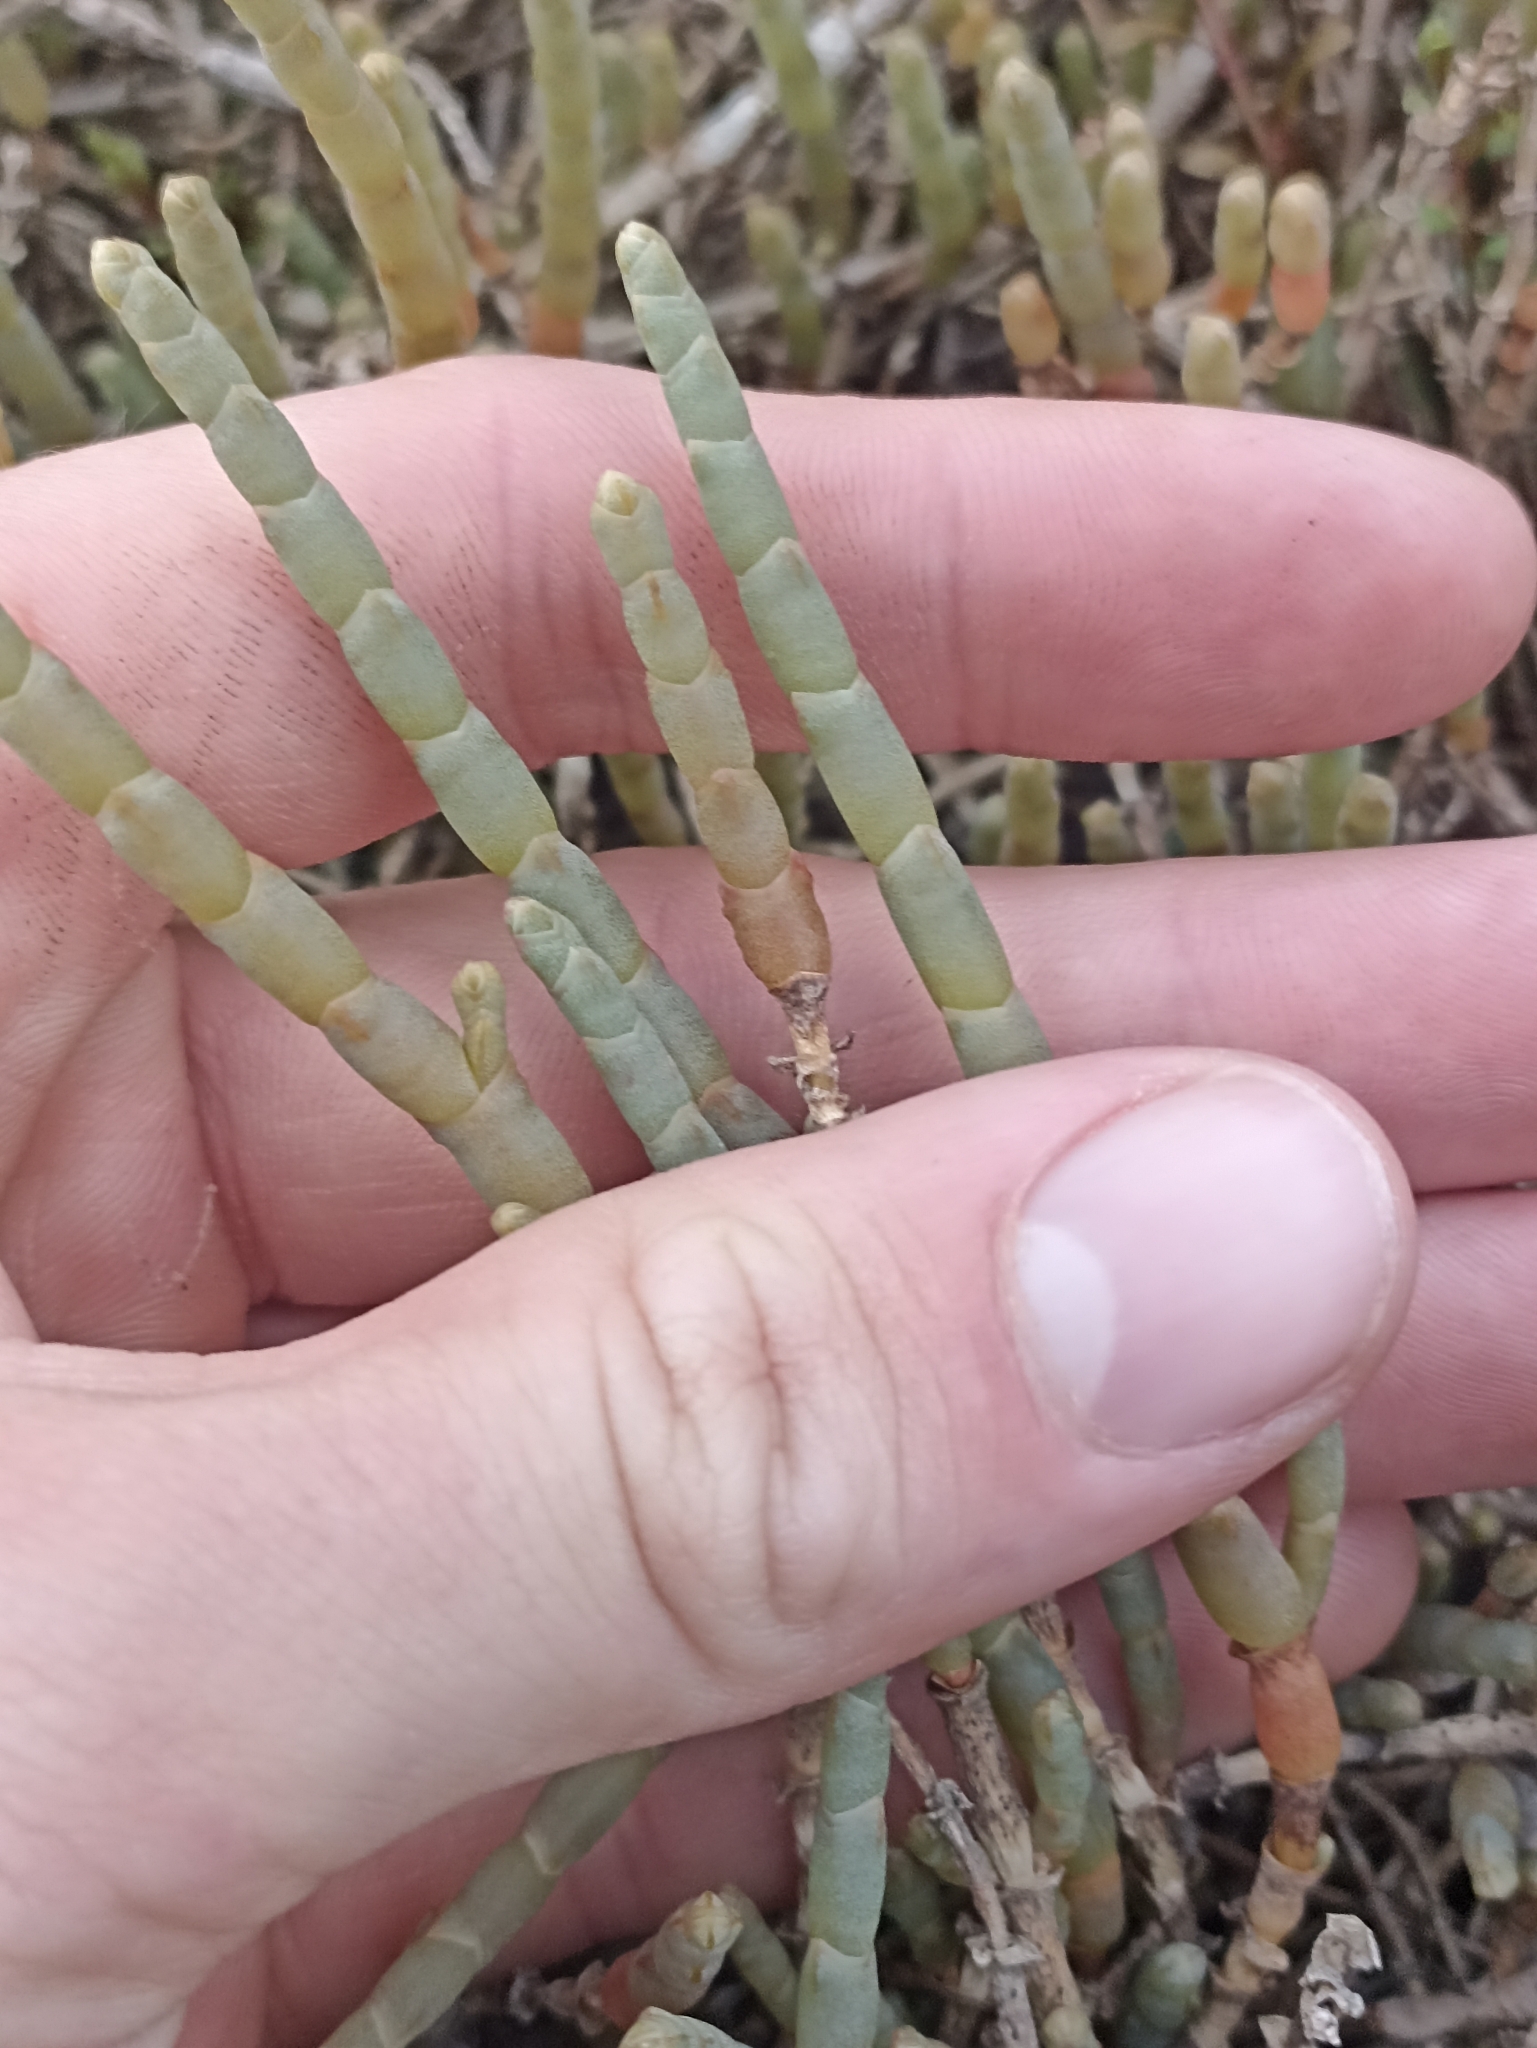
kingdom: Plantae
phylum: Tracheophyta
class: Magnoliopsida
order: Caryophyllales
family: Amaranthaceae
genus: Salicornia
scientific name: Salicornia quinqueflora
